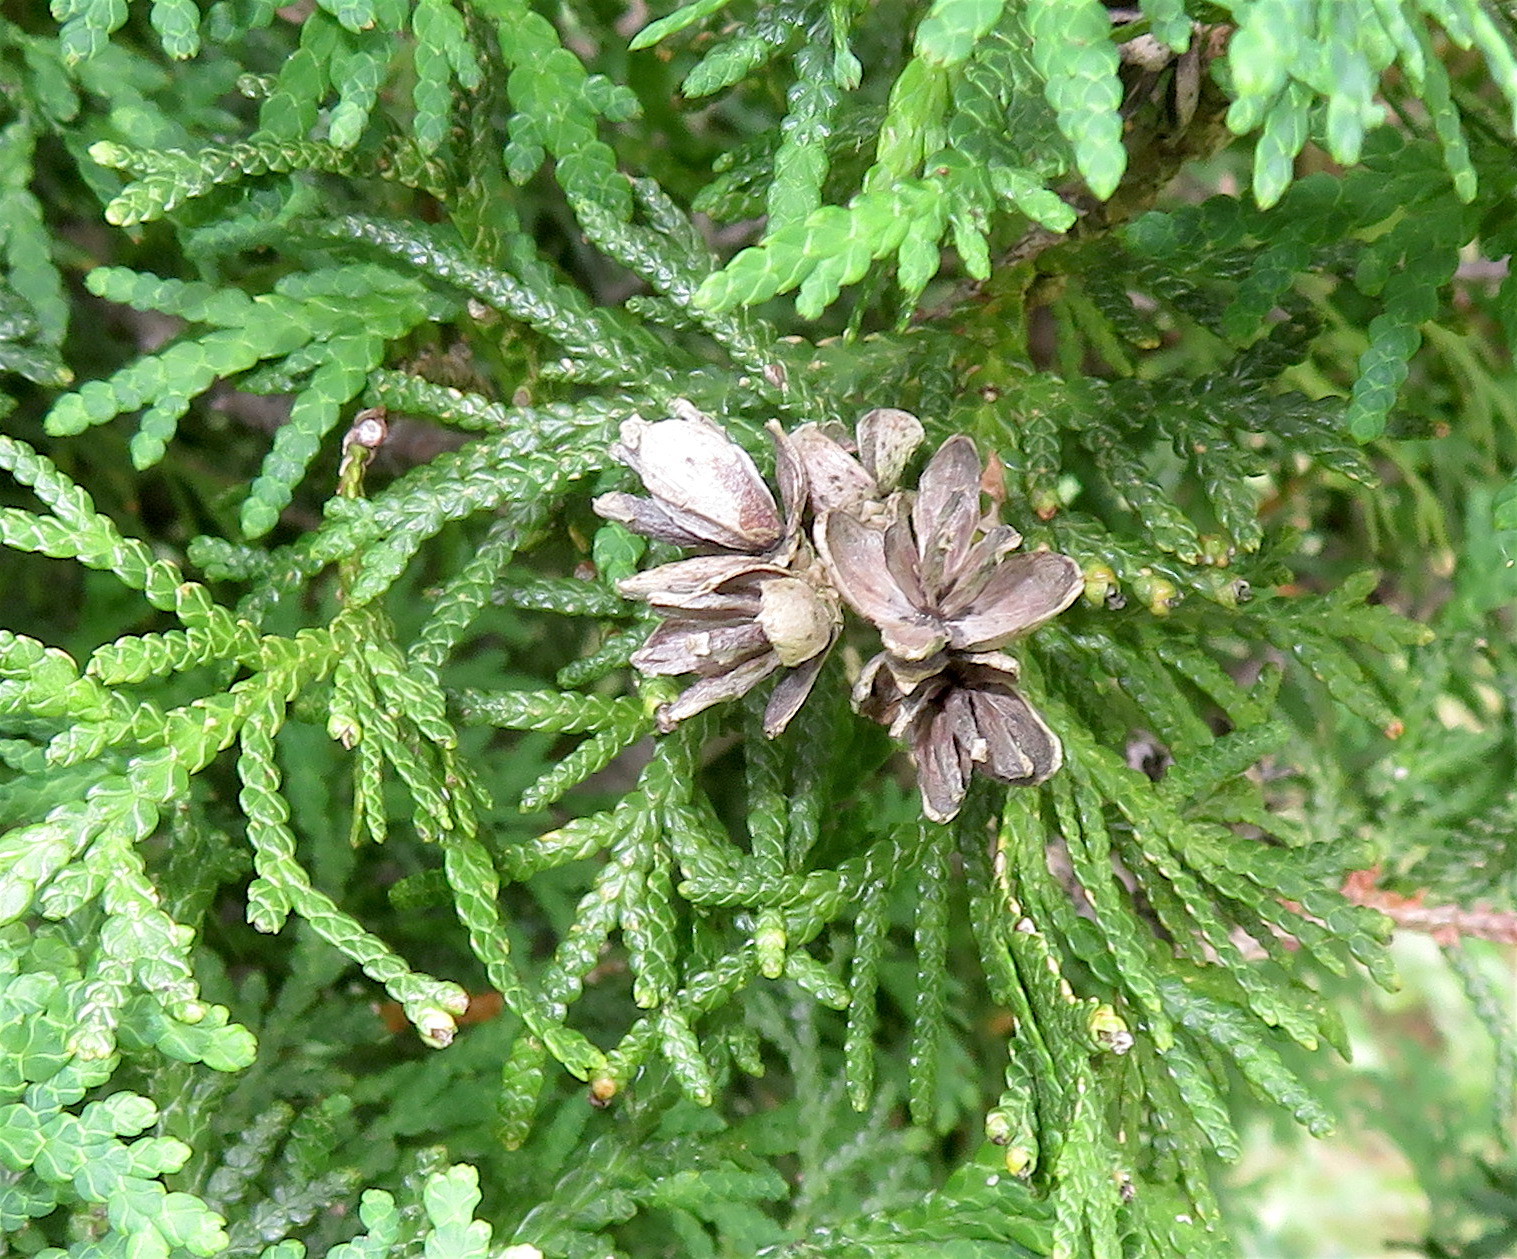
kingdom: Plantae
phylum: Tracheophyta
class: Pinopsida
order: Pinales
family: Cupressaceae
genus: Thuja
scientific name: Thuja occidentalis
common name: Northern white-cedar
